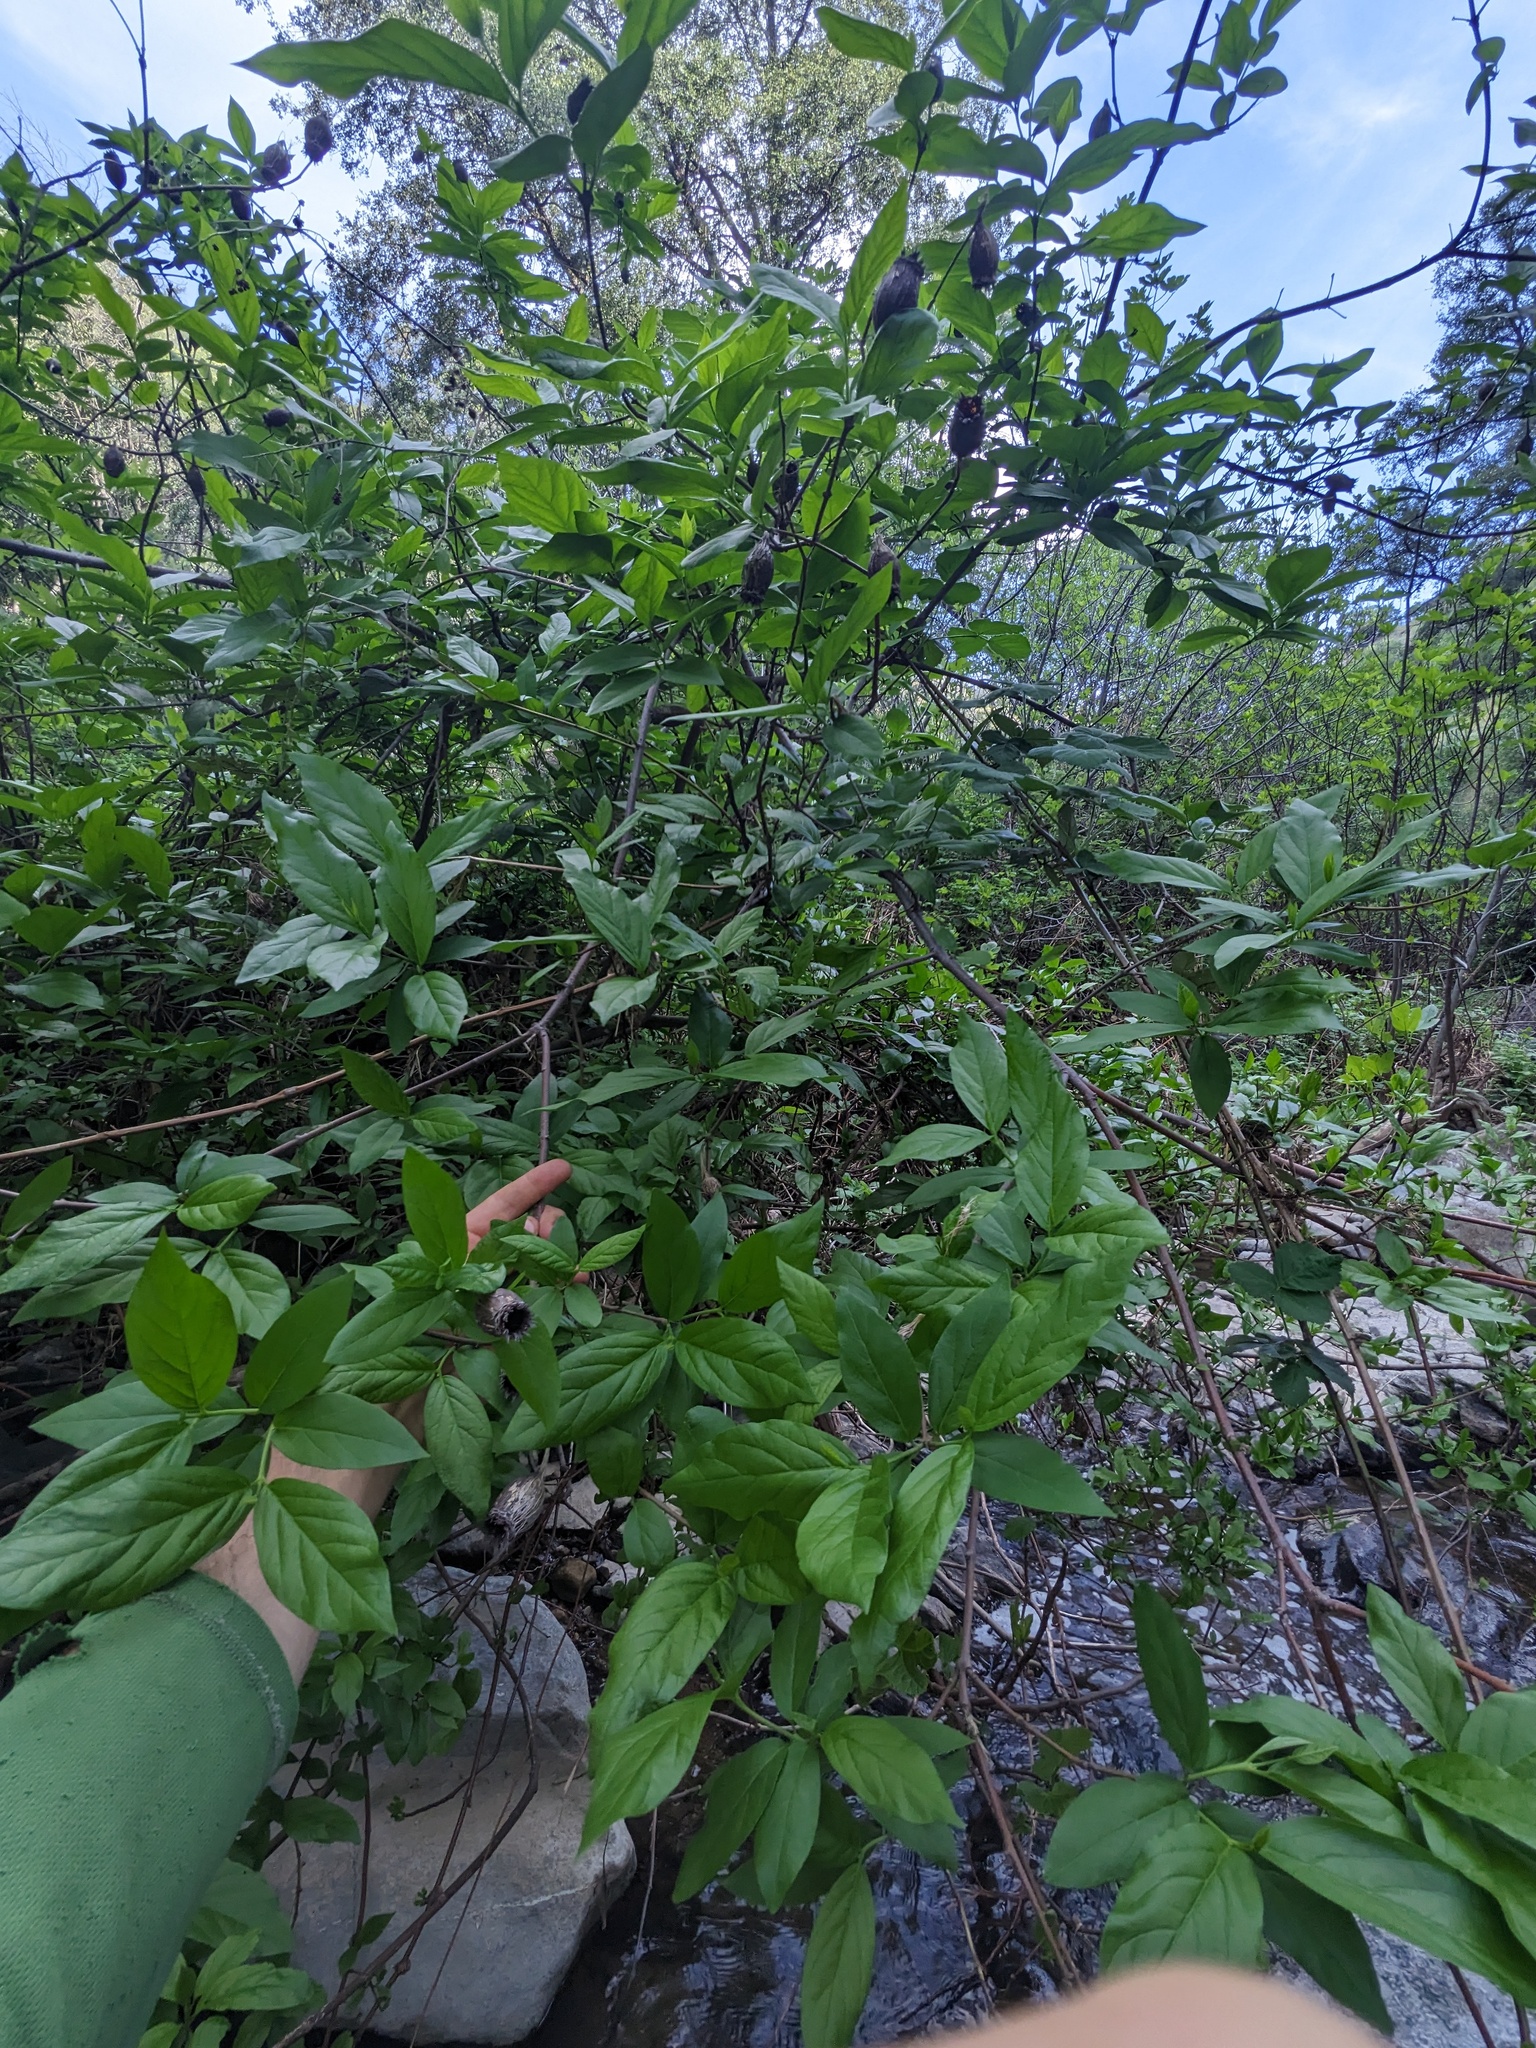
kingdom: Plantae
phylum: Tracheophyta
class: Magnoliopsida
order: Laurales
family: Calycanthaceae
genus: Calycanthus
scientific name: Calycanthus occidentalis
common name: California spicebush
